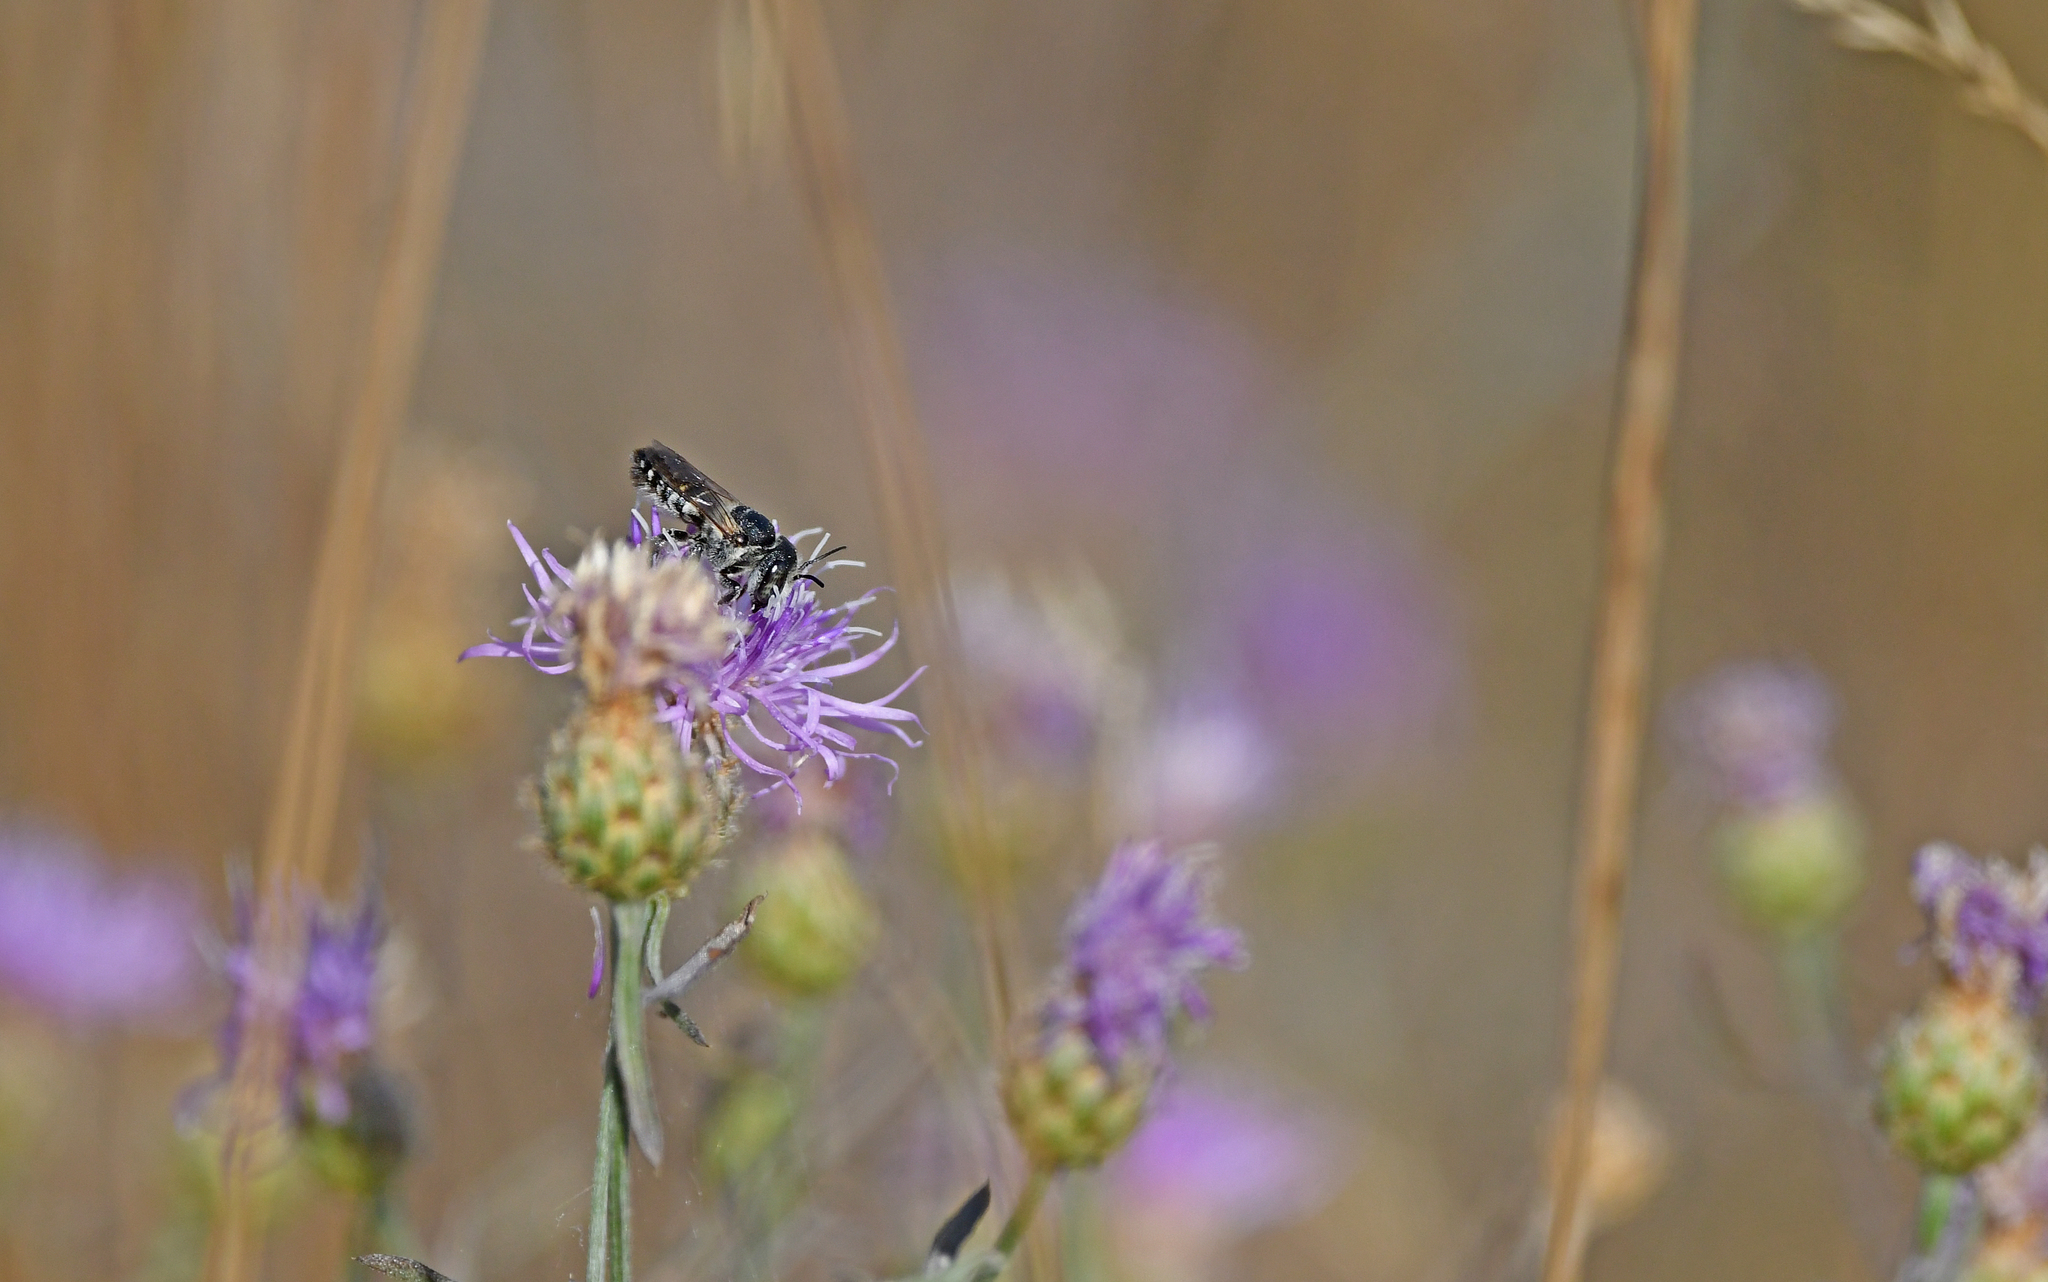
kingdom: Animalia
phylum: Arthropoda
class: Insecta
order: Hymenoptera
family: Megachilidae
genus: Megachile
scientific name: Megachile apicalis
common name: Apical leafcutter bee
